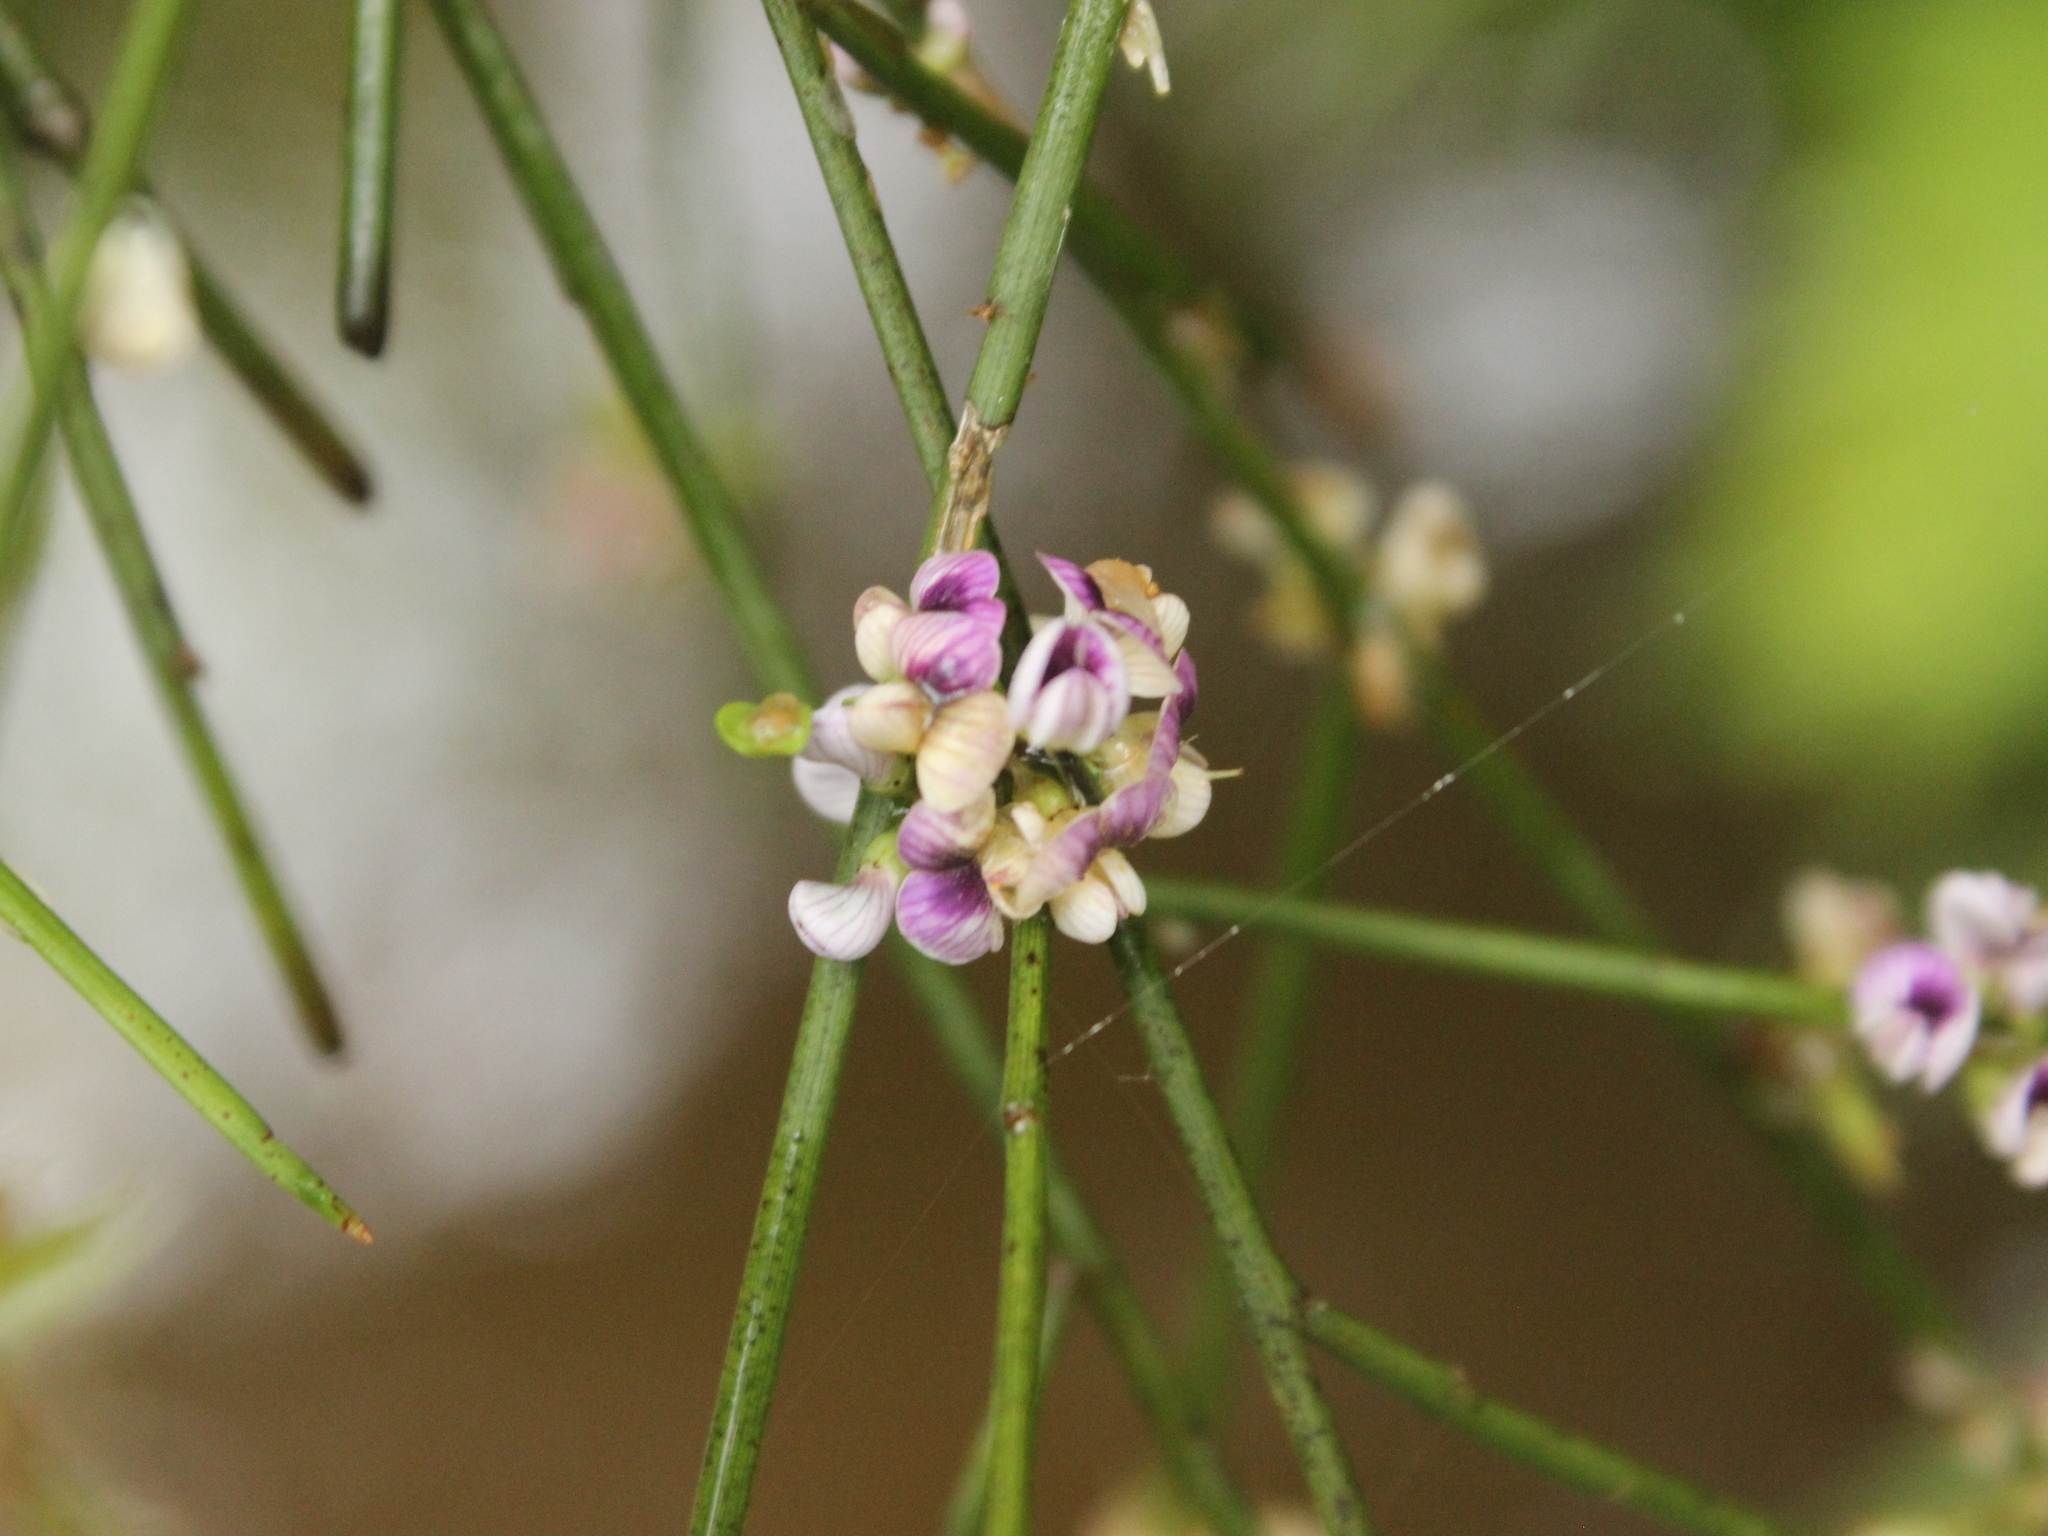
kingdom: Plantae
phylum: Tracheophyta
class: Magnoliopsida
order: Fabales
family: Fabaceae
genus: Carmichaelia
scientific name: Carmichaelia odorata
